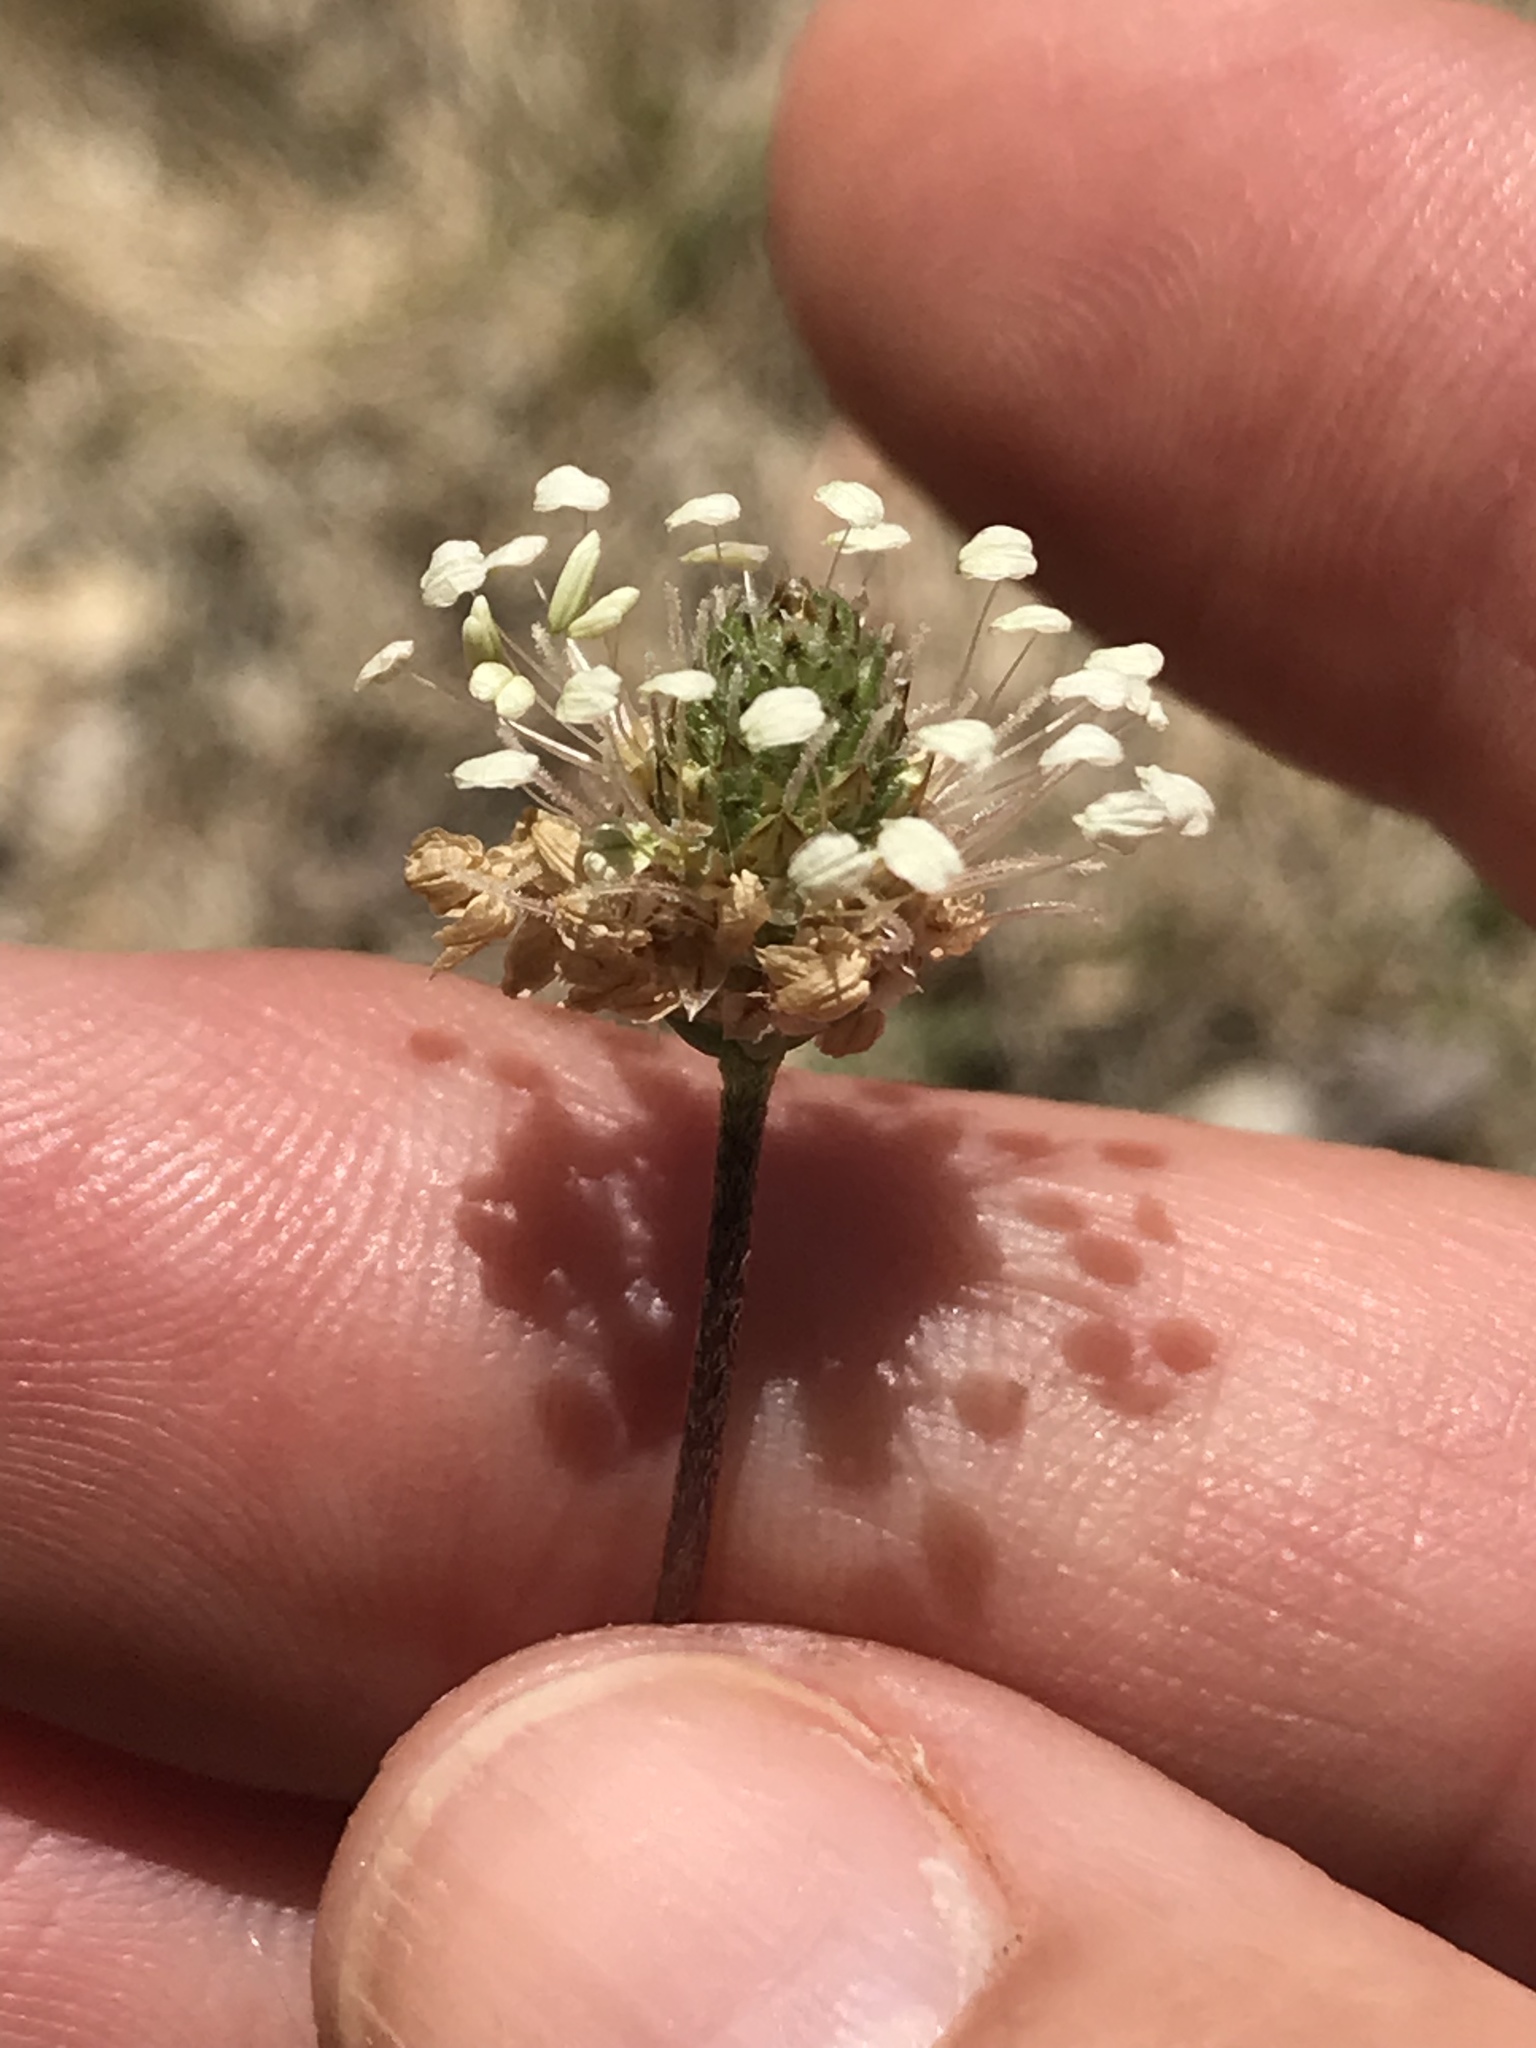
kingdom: Plantae
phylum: Tracheophyta
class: Magnoliopsida
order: Lamiales
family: Plantaginaceae
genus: Plantago
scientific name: Plantago lanceolata
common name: Ribwort plantain
